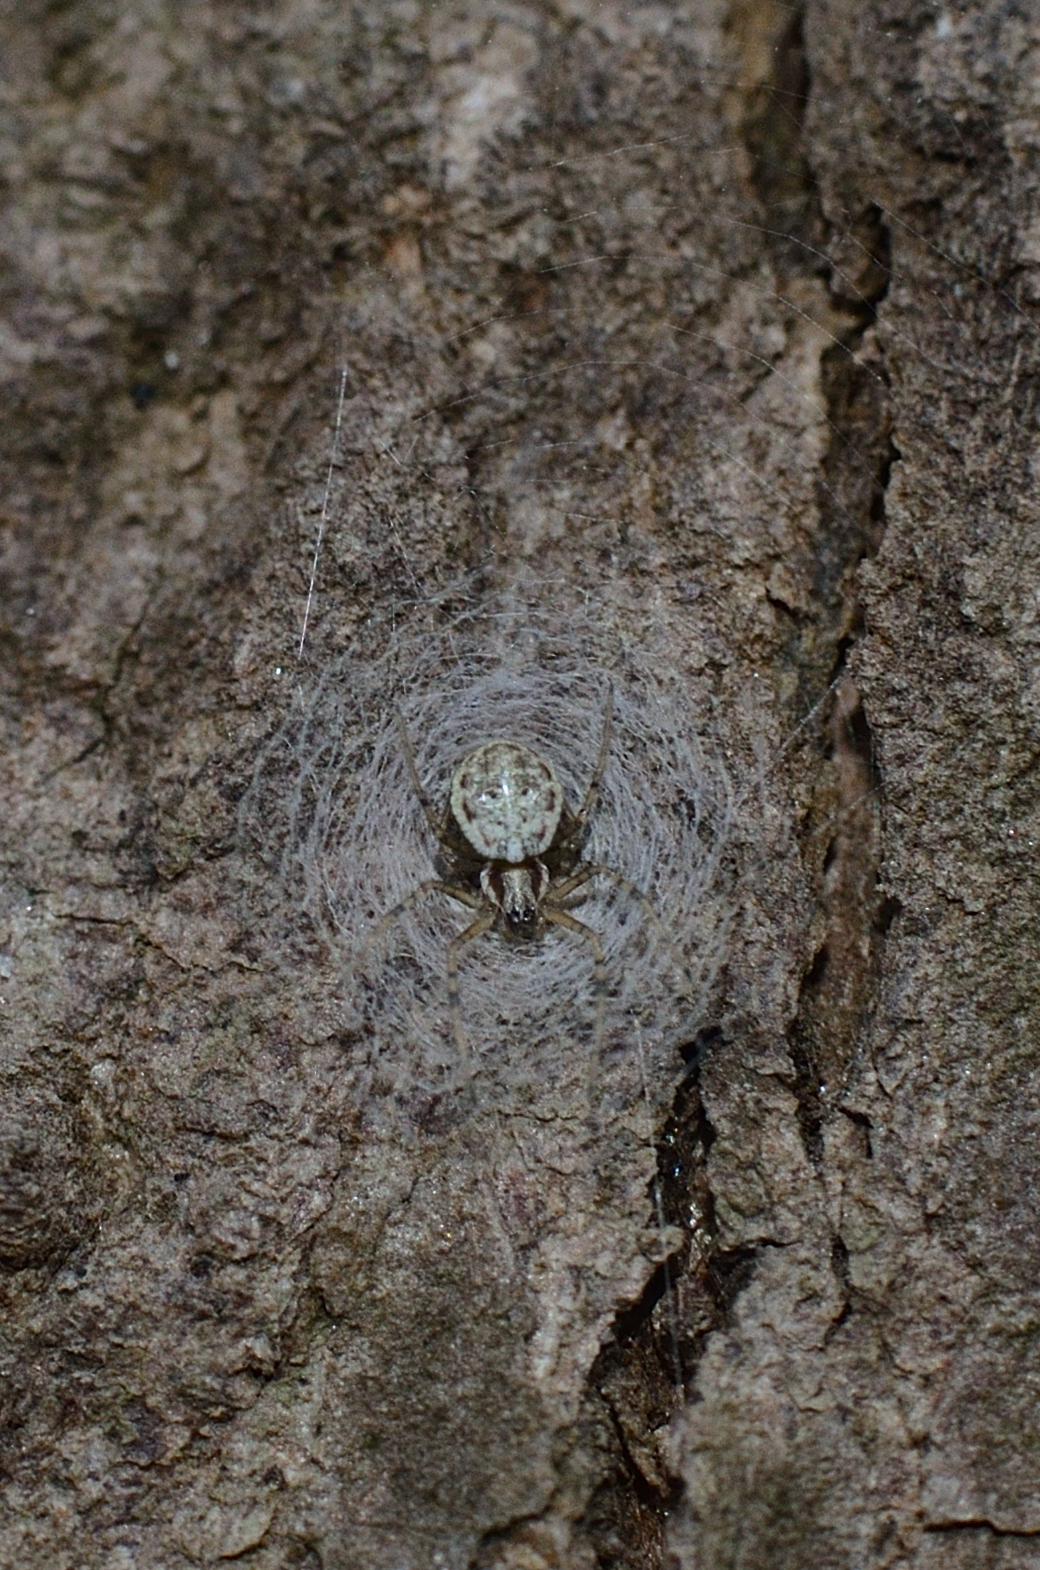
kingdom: Animalia
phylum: Arthropoda
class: Arachnida
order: Araneae
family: Araneidae
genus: Herennia
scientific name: Herennia multipuncta
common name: Spotted coin spider
